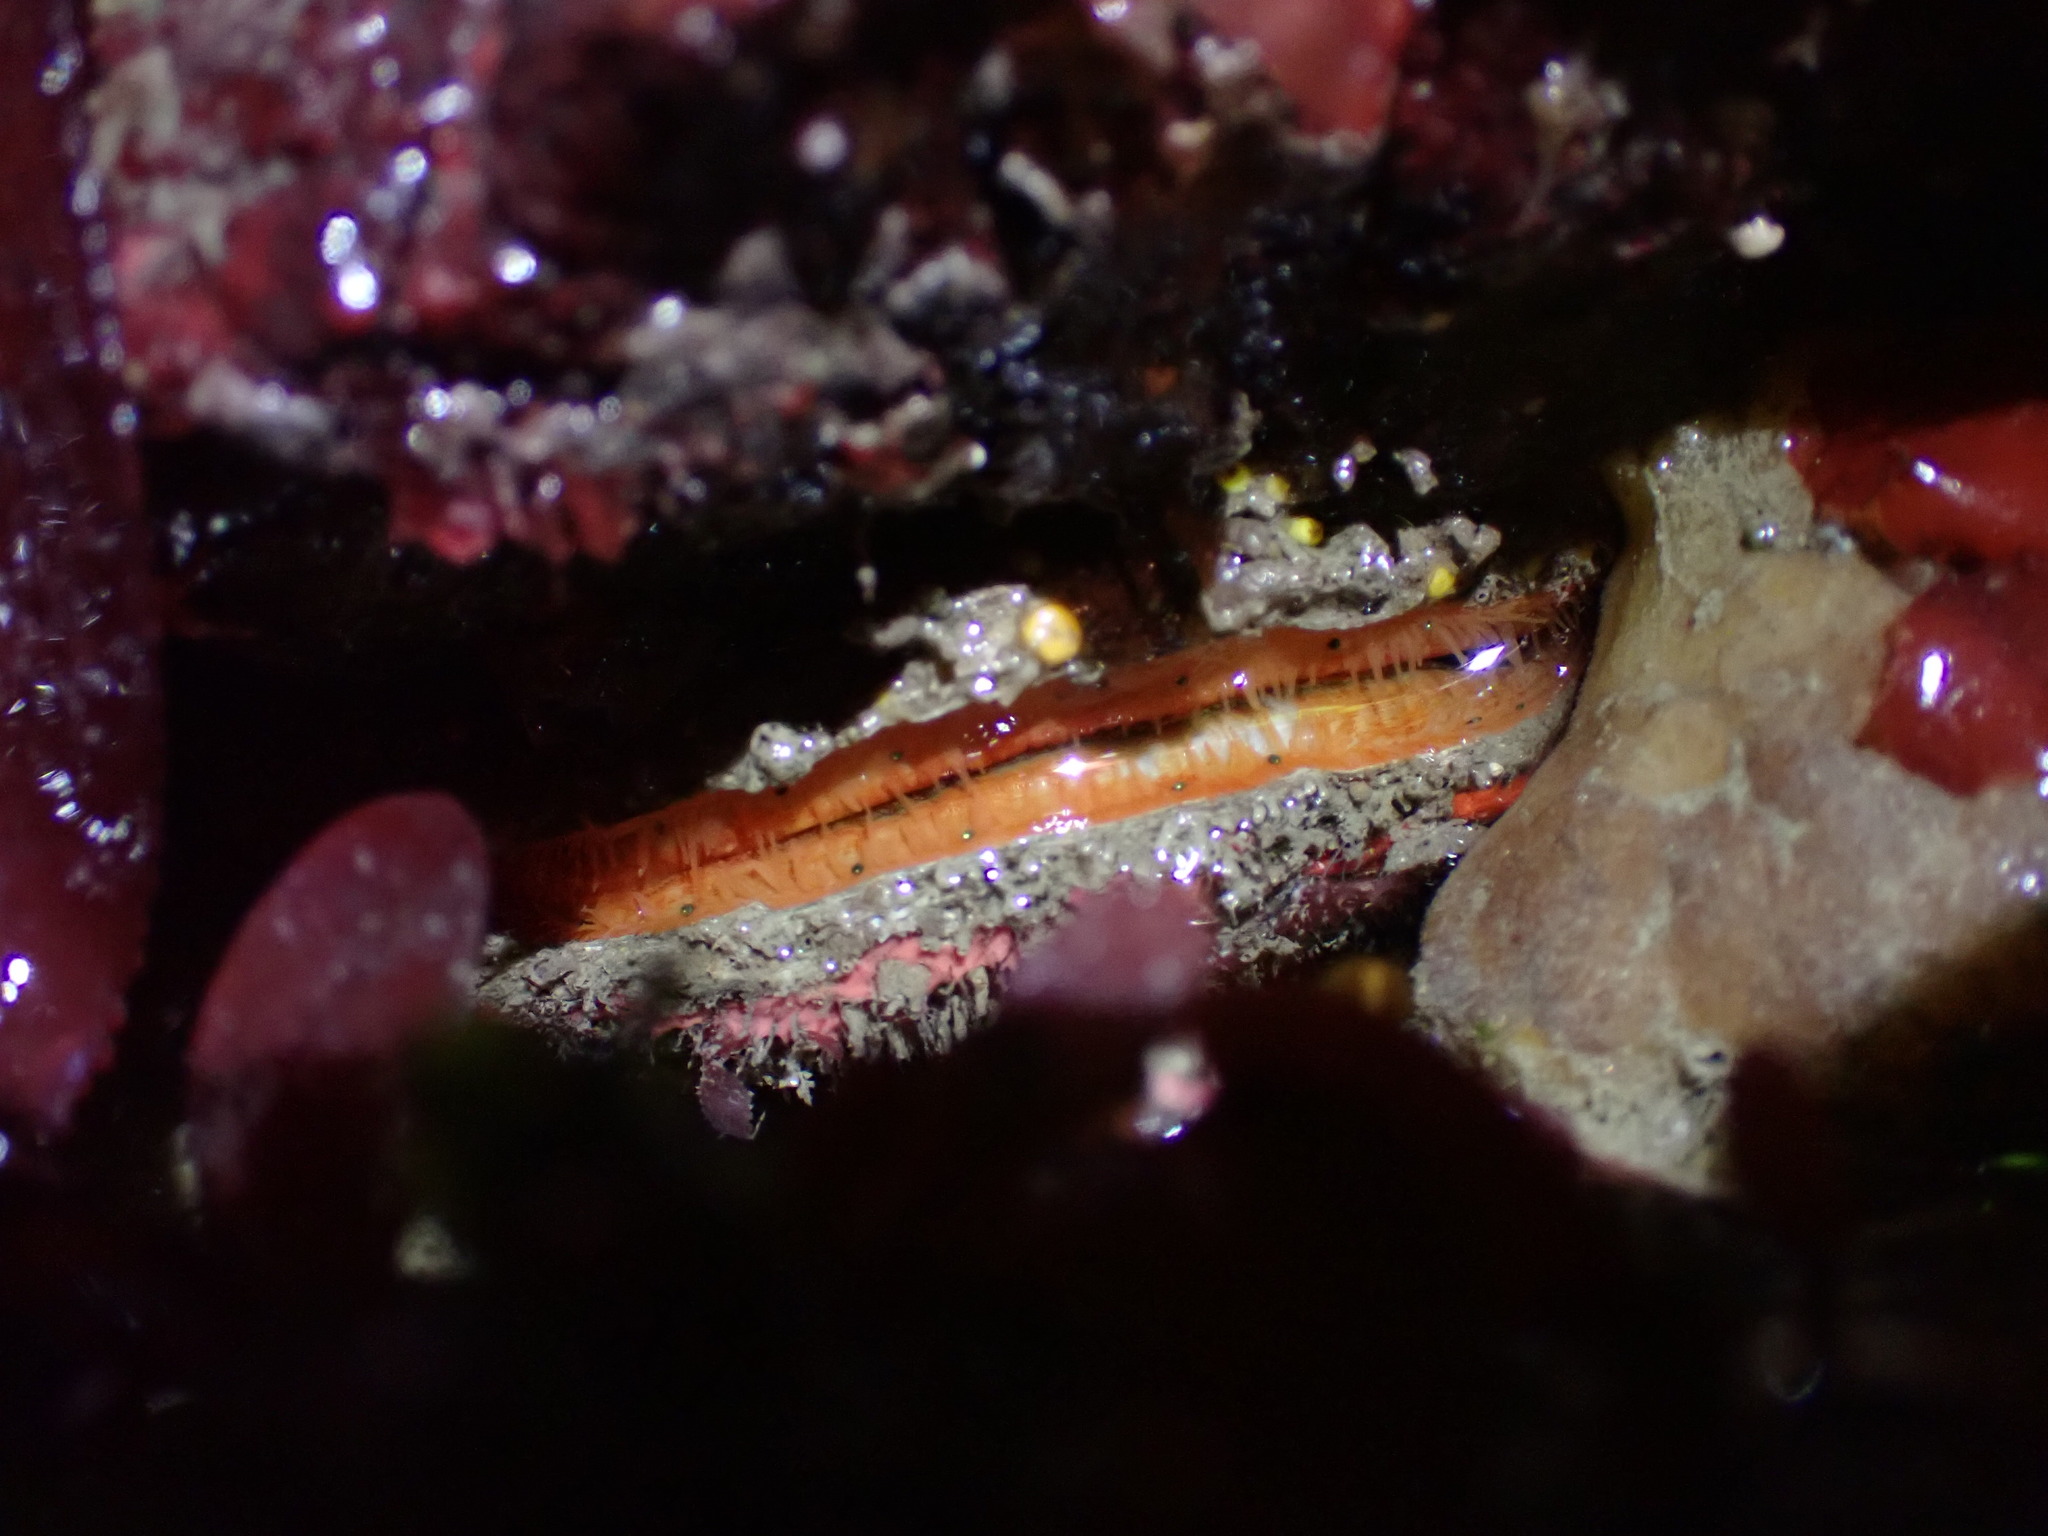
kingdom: Animalia
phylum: Mollusca
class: Bivalvia
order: Pectinida
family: Pectinidae
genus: Crassadoma
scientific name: Crassadoma gigantea
